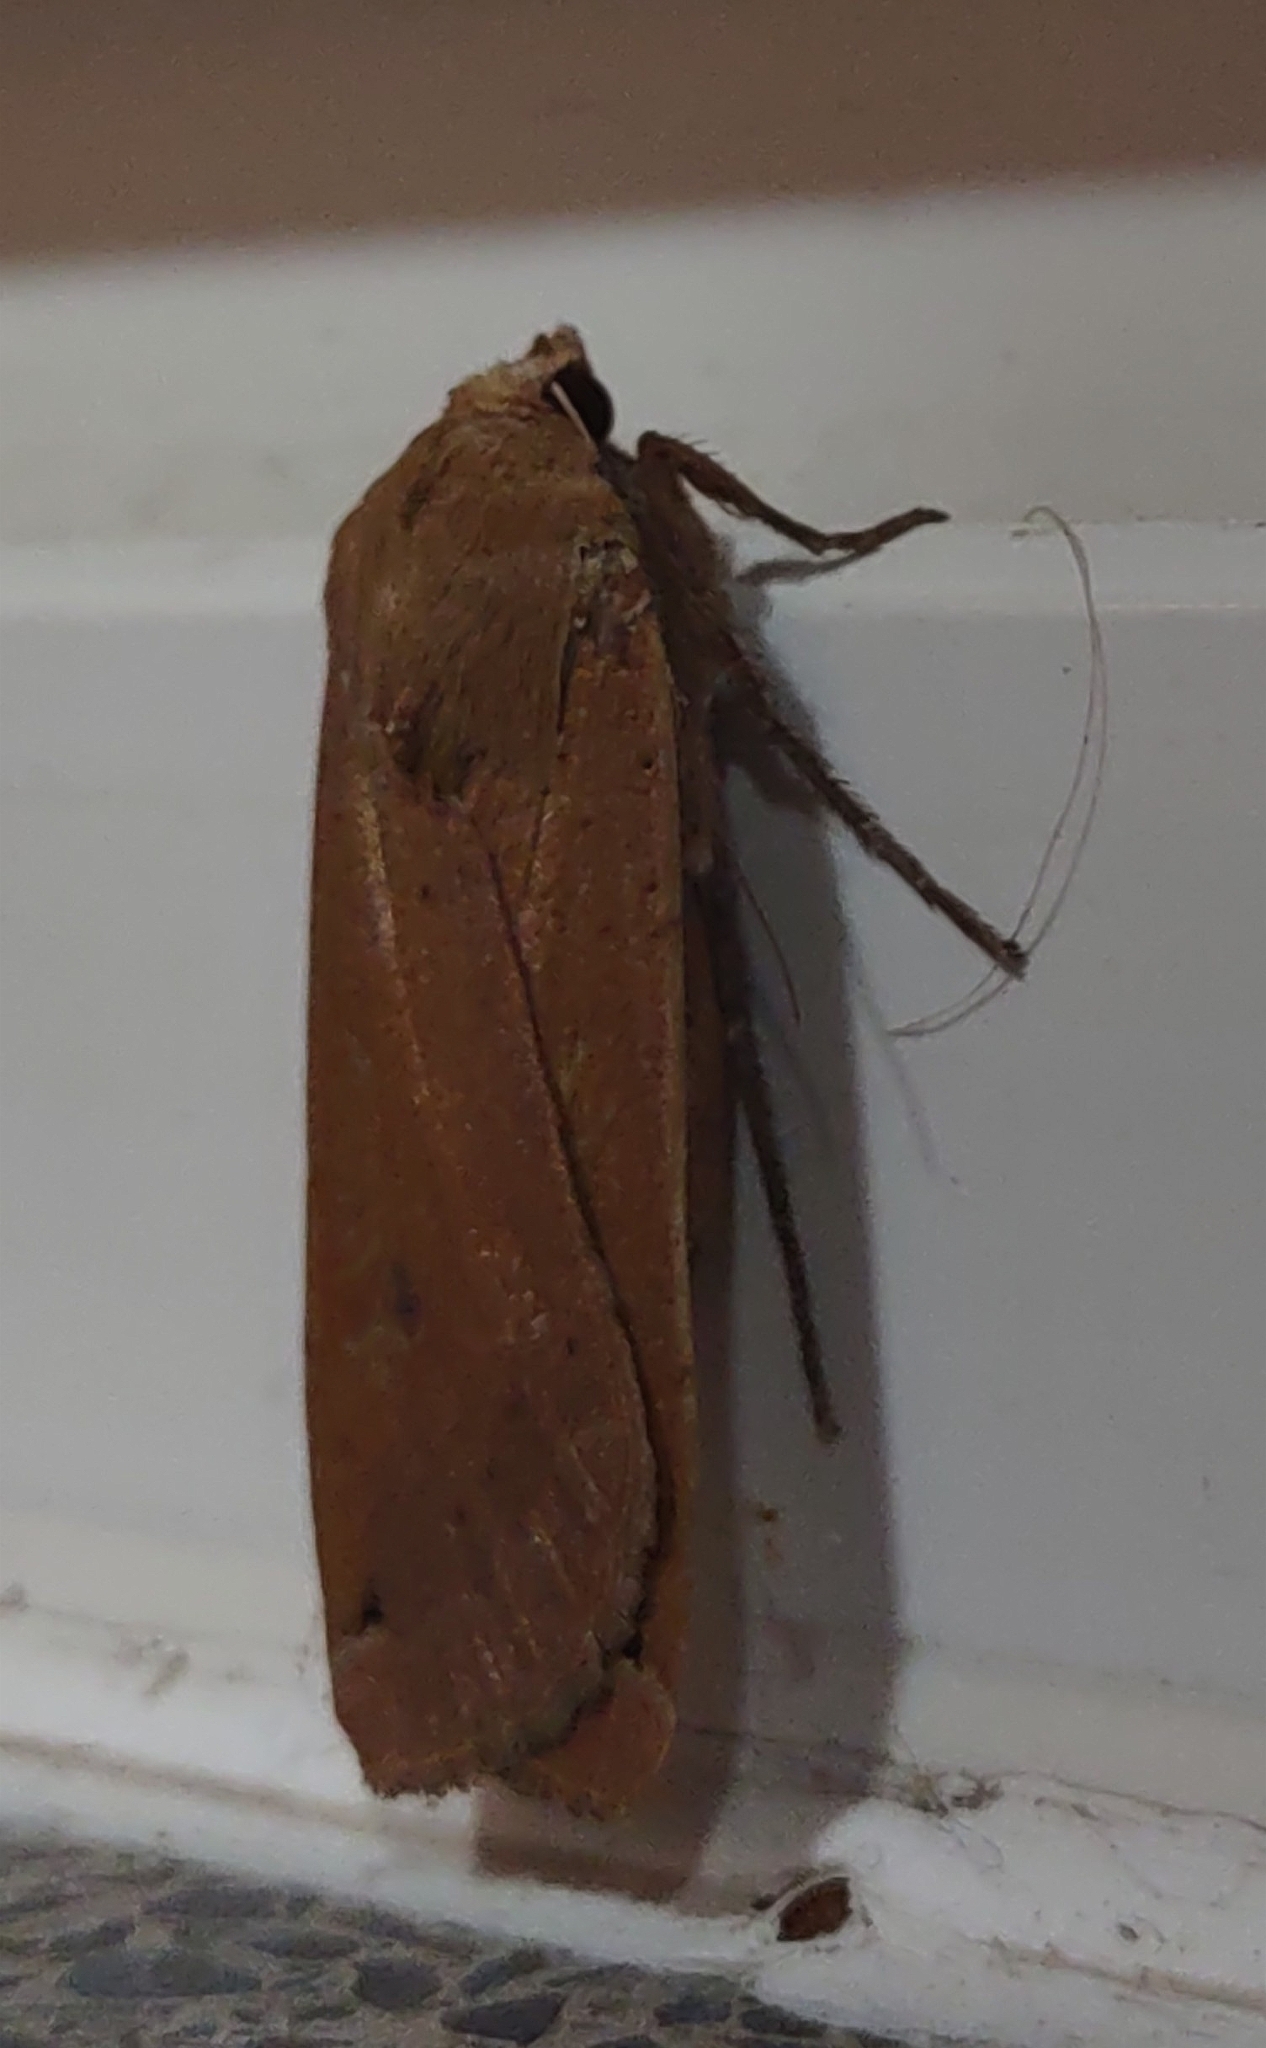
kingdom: Animalia
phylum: Arthropoda
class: Insecta
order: Lepidoptera
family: Noctuidae
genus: Noctua
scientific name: Noctua pronuba
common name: Large yellow underwing
